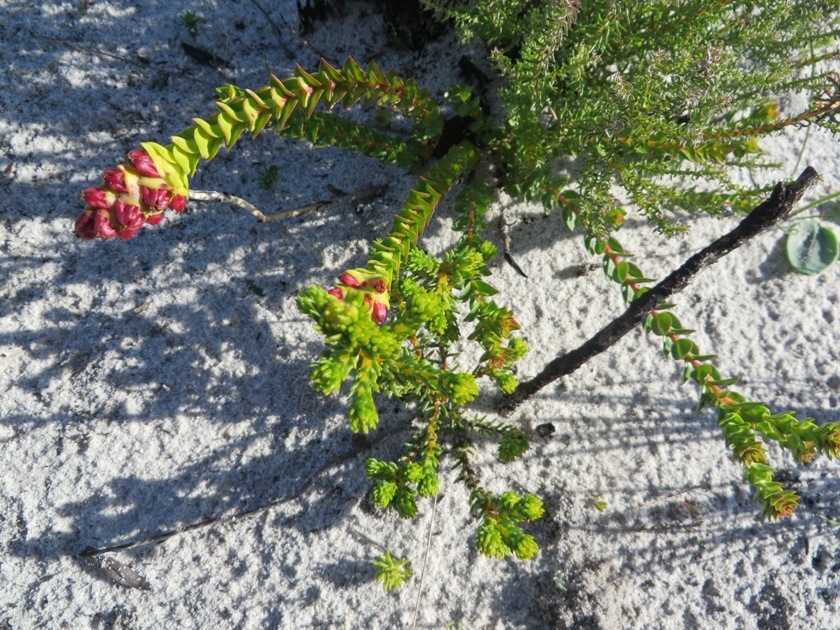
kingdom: Plantae
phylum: Tracheophyta
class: Magnoliopsida
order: Myrtales
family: Penaeaceae
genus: Penaea
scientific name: Penaea mucronata
